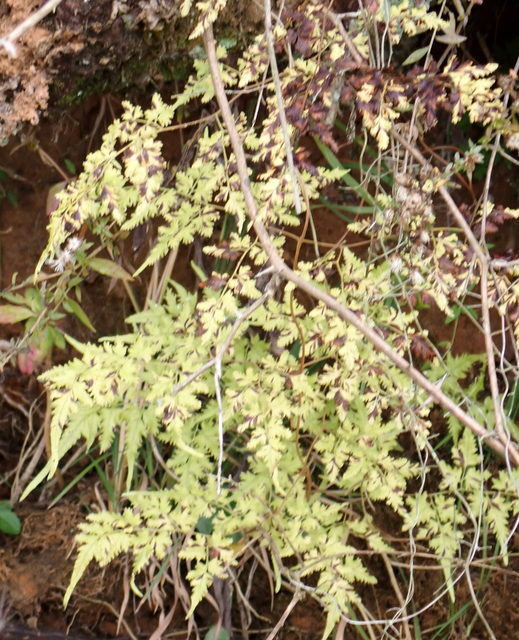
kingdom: Plantae
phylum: Tracheophyta
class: Polypodiopsida
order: Schizaeales
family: Lygodiaceae
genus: Lygodium
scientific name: Lygodium japonicum
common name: Japanese climbing fern
